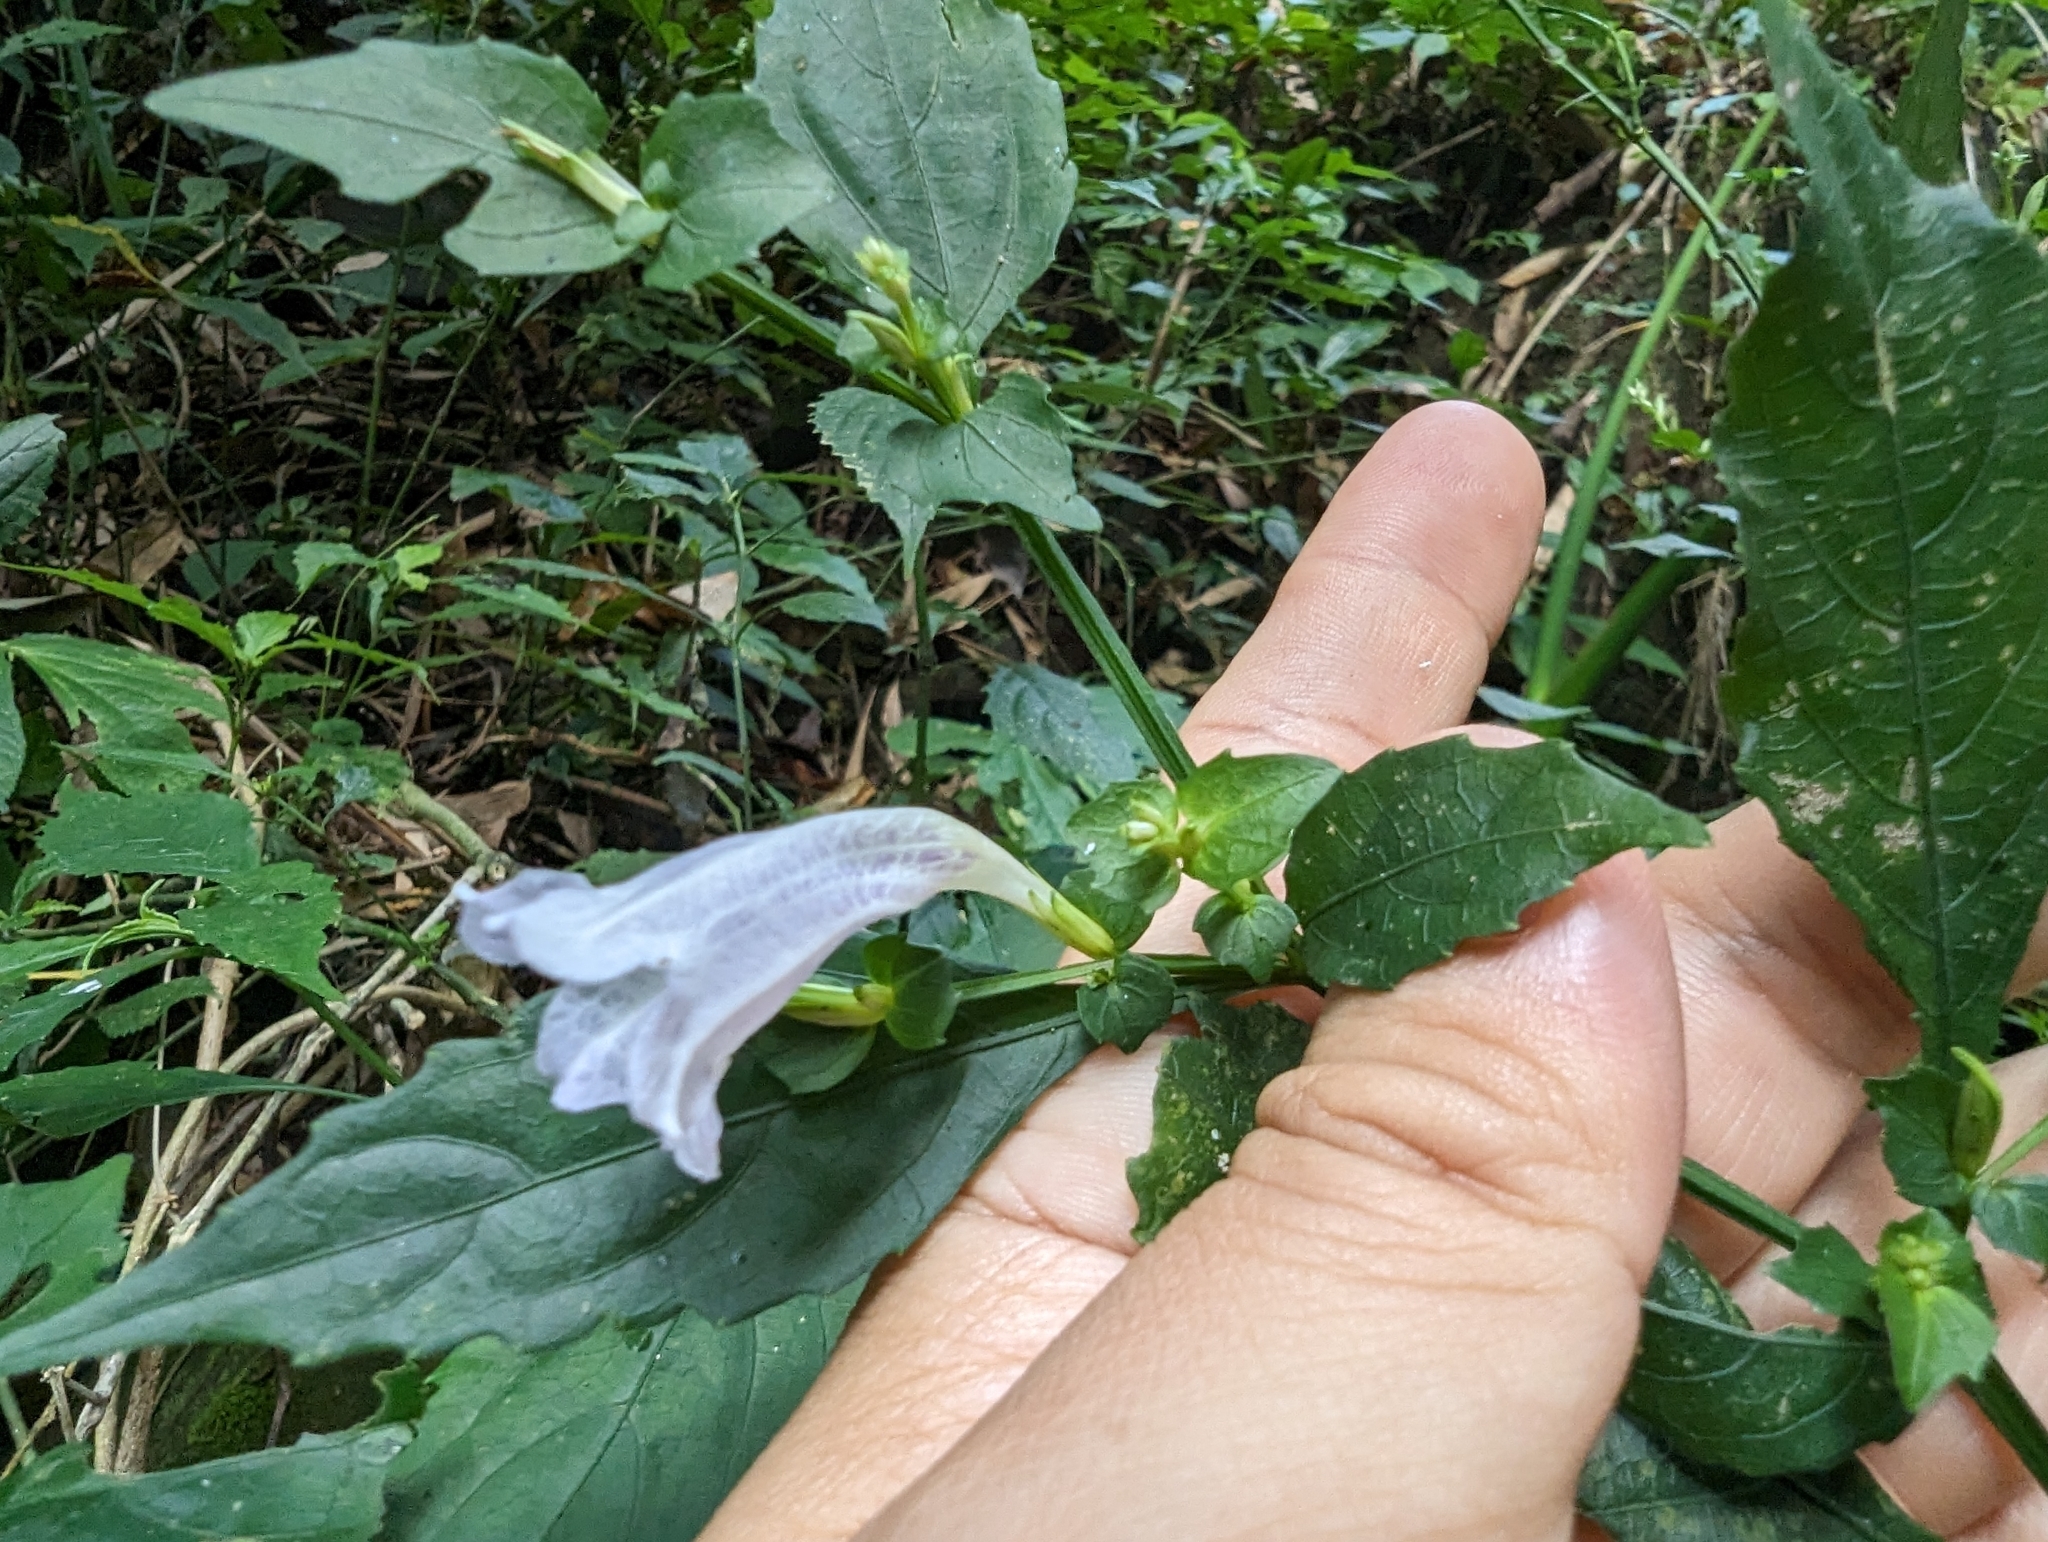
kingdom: Plantae
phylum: Tracheophyta
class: Magnoliopsida
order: Lamiales
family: Acanthaceae
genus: Strobilanthes
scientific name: Strobilanthes flexicaulis
